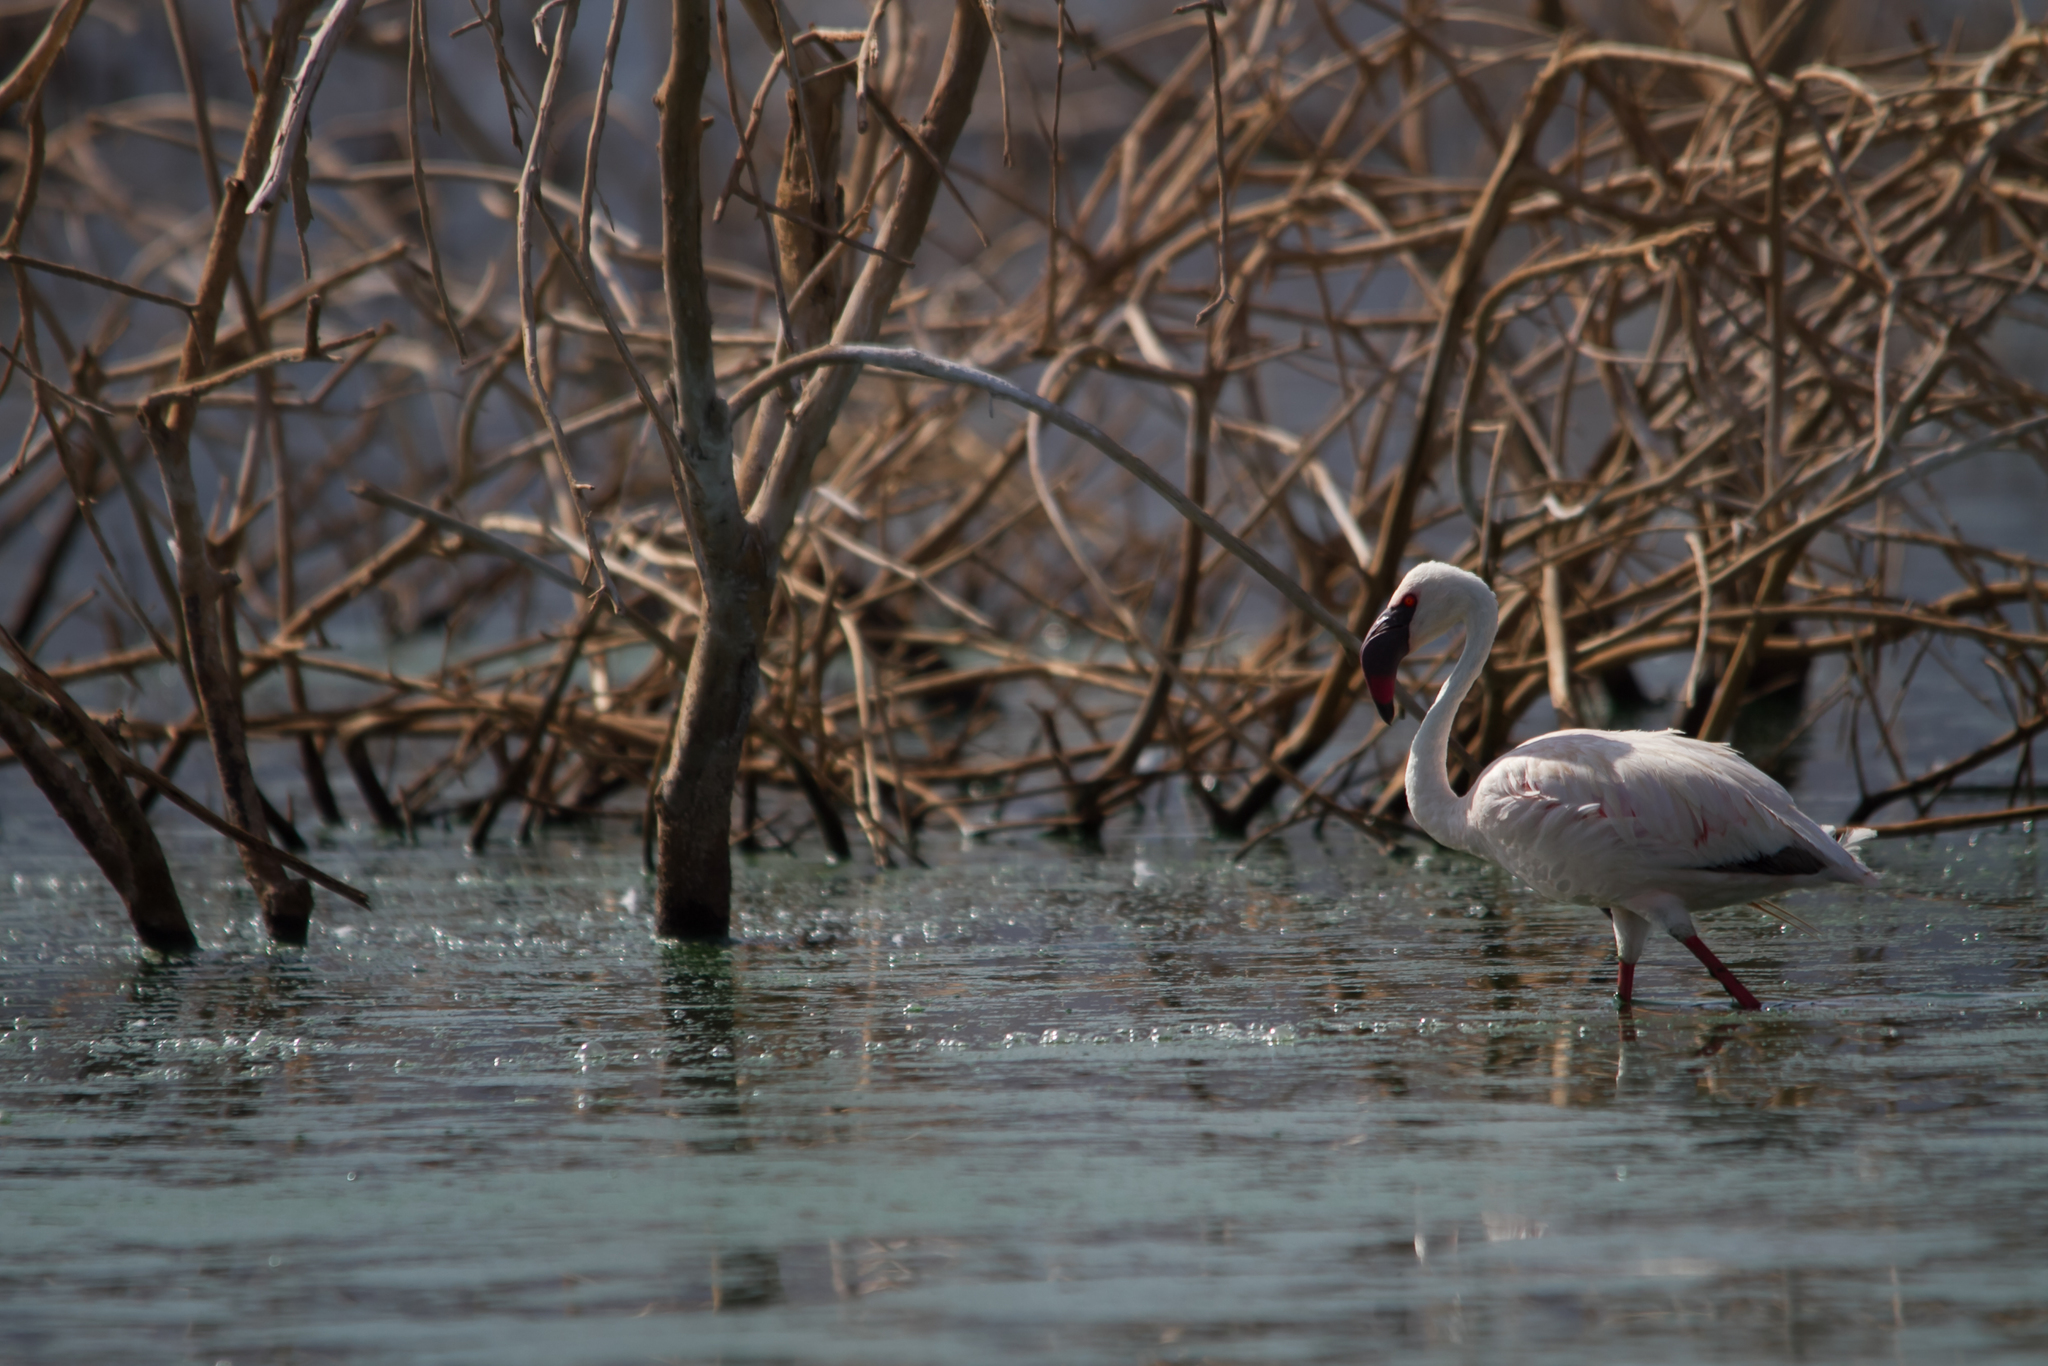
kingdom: Animalia
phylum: Chordata
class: Aves
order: Phoenicopteriformes
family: Phoenicopteridae
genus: Phoeniconaias
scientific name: Phoeniconaias minor
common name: Lesser flamingo
